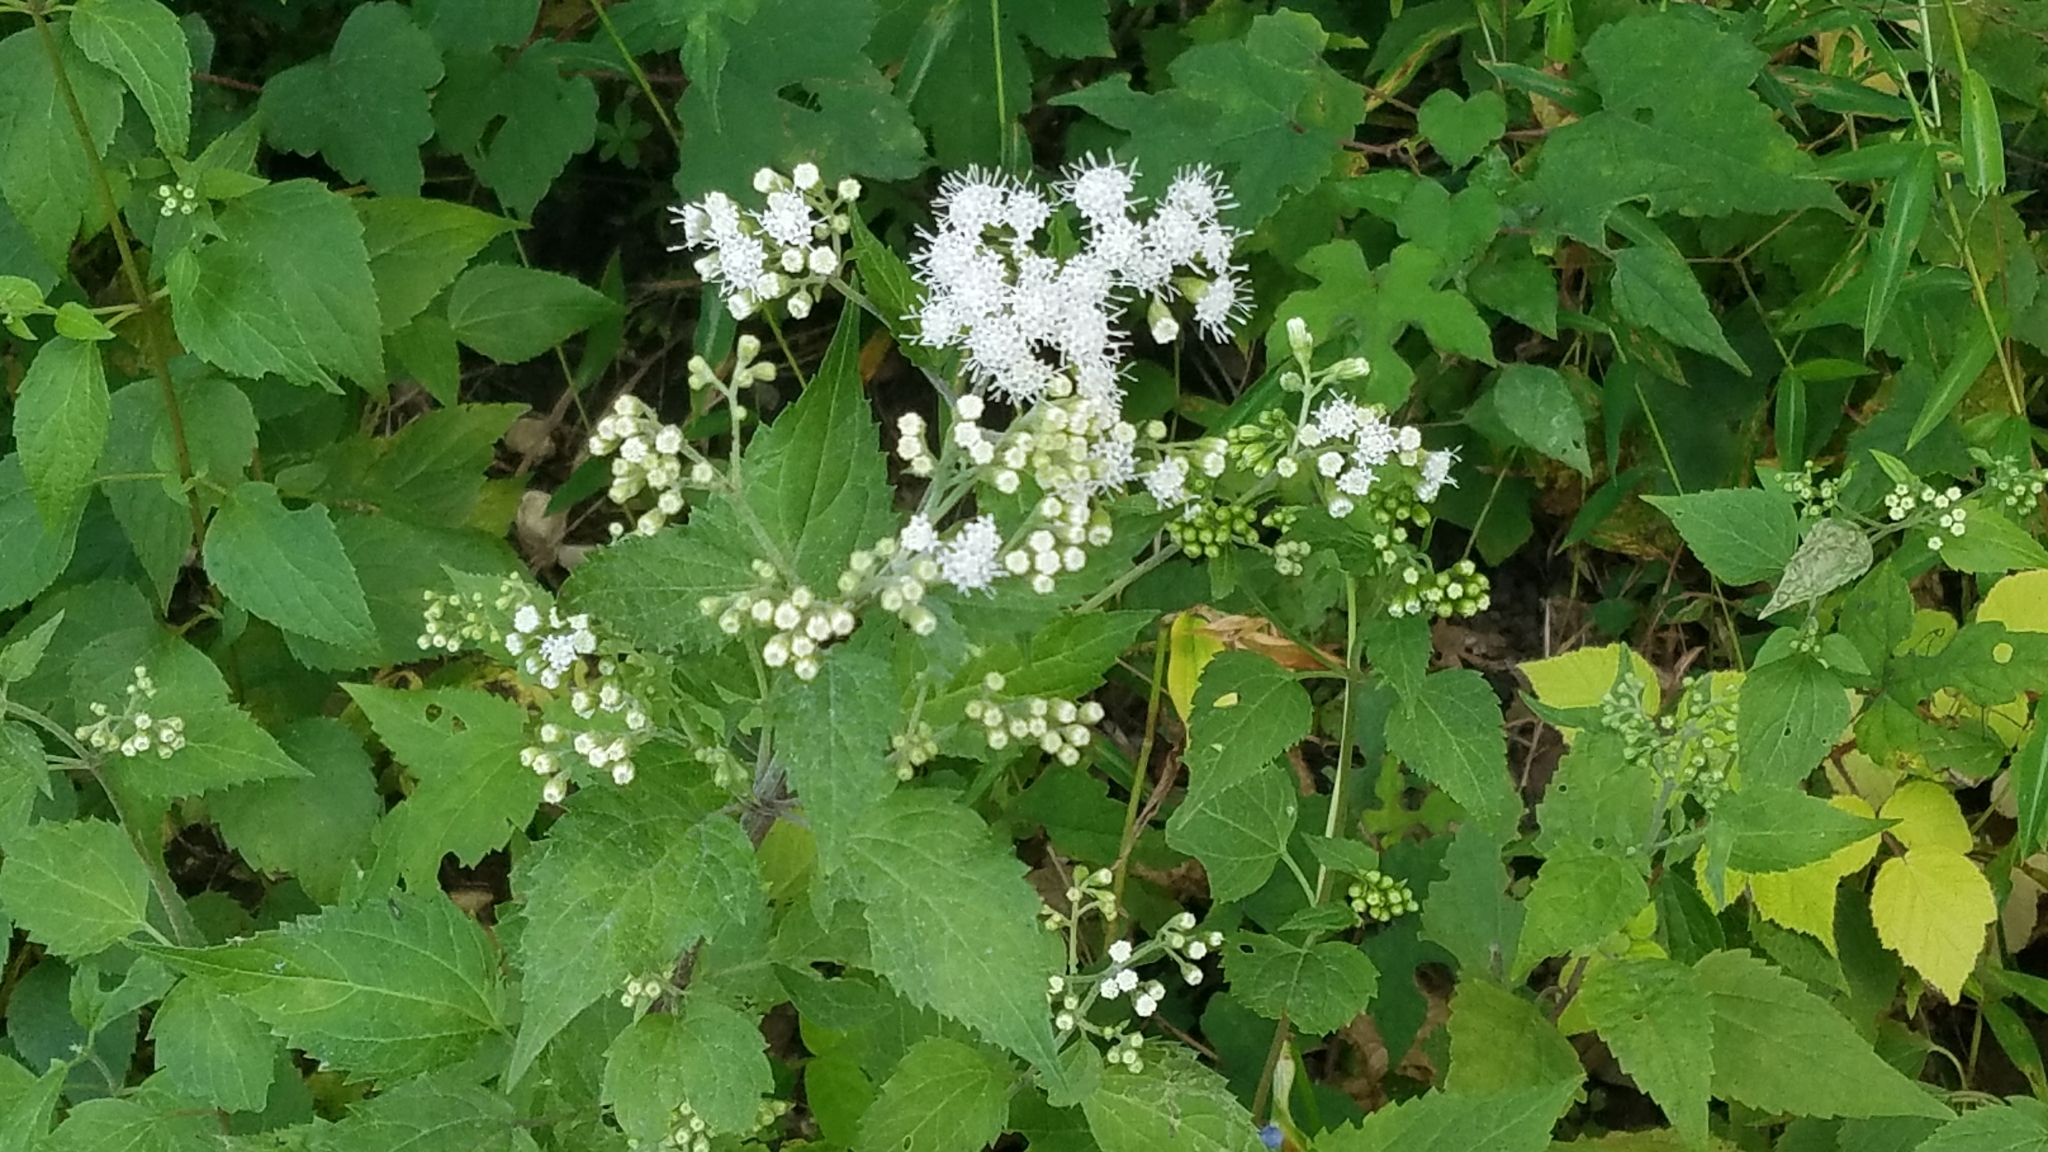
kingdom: Plantae
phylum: Tracheophyta
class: Magnoliopsida
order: Asterales
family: Asteraceae
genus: Ageratina
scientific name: Ageratina altissima
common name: White snakeroot
